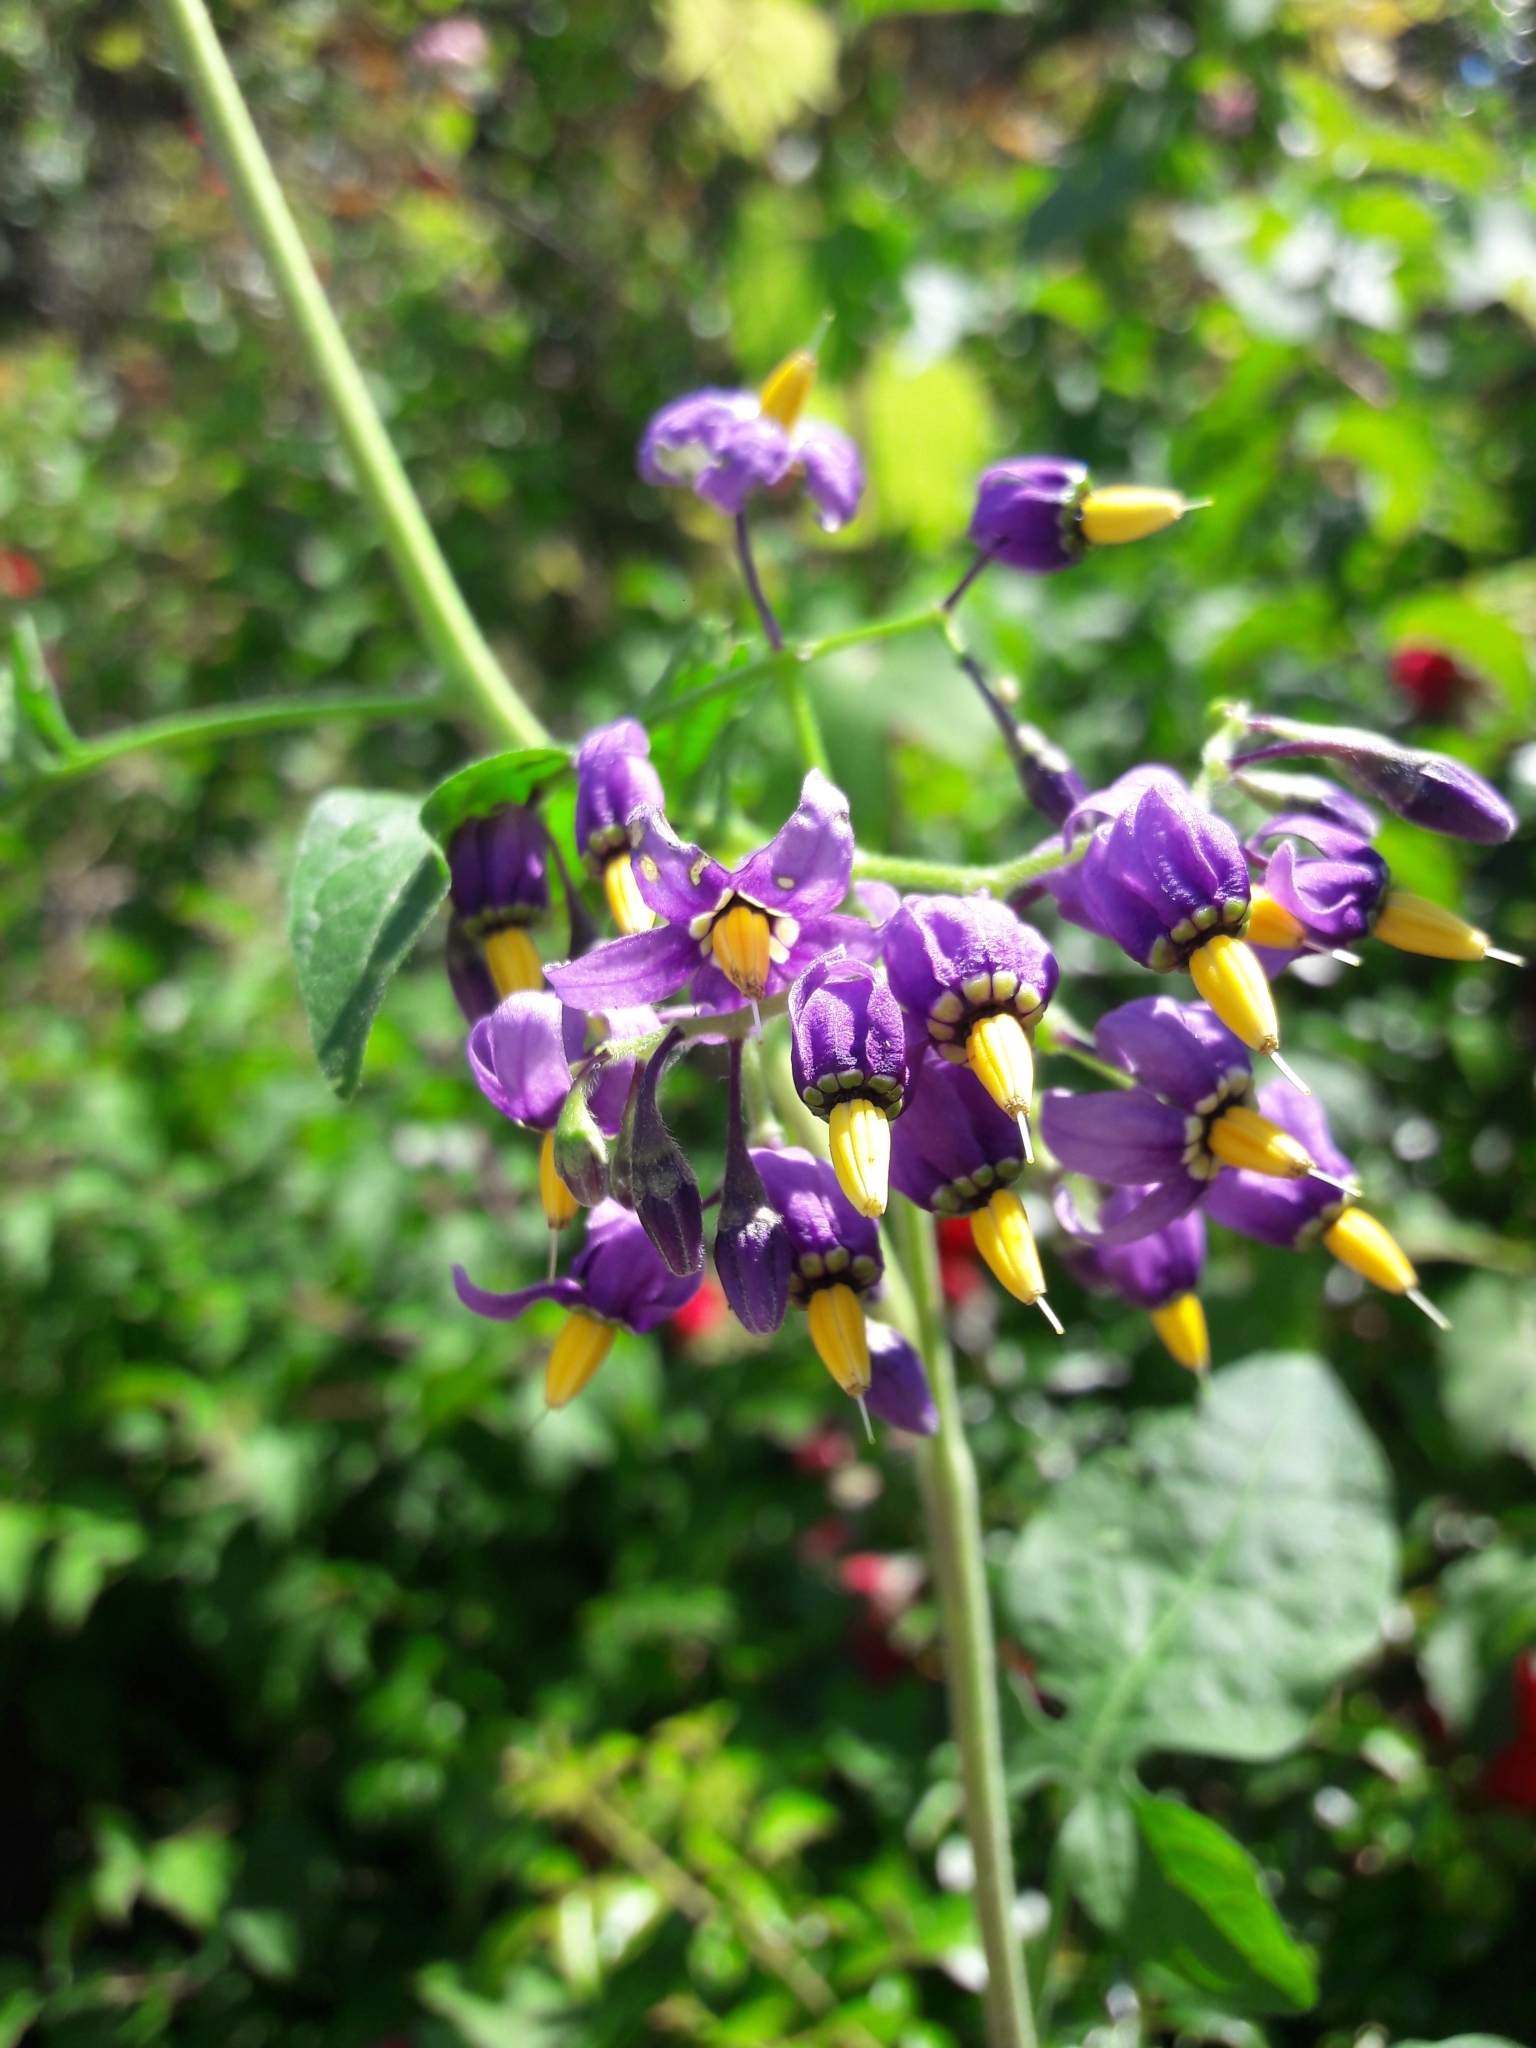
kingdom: Plantae
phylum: Tracheophyta
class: Magnoliopsida
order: Solanales
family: Solanaceae
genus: Solanum
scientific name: Solanum dulcamara
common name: Climbing nightshade
